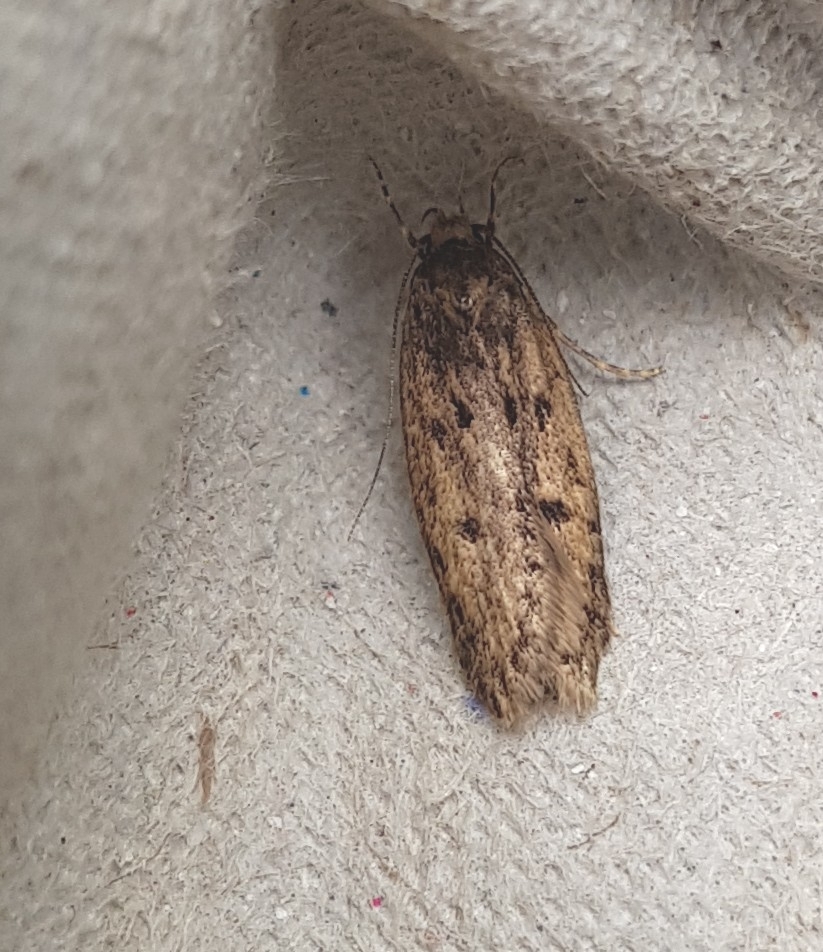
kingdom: Animalia
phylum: Arthropoda
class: Insecta
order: Lepidoptera
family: Oecophoridae
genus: Hofmannophila
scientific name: Hofmannophila pseudospretella
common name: Brown house moth
